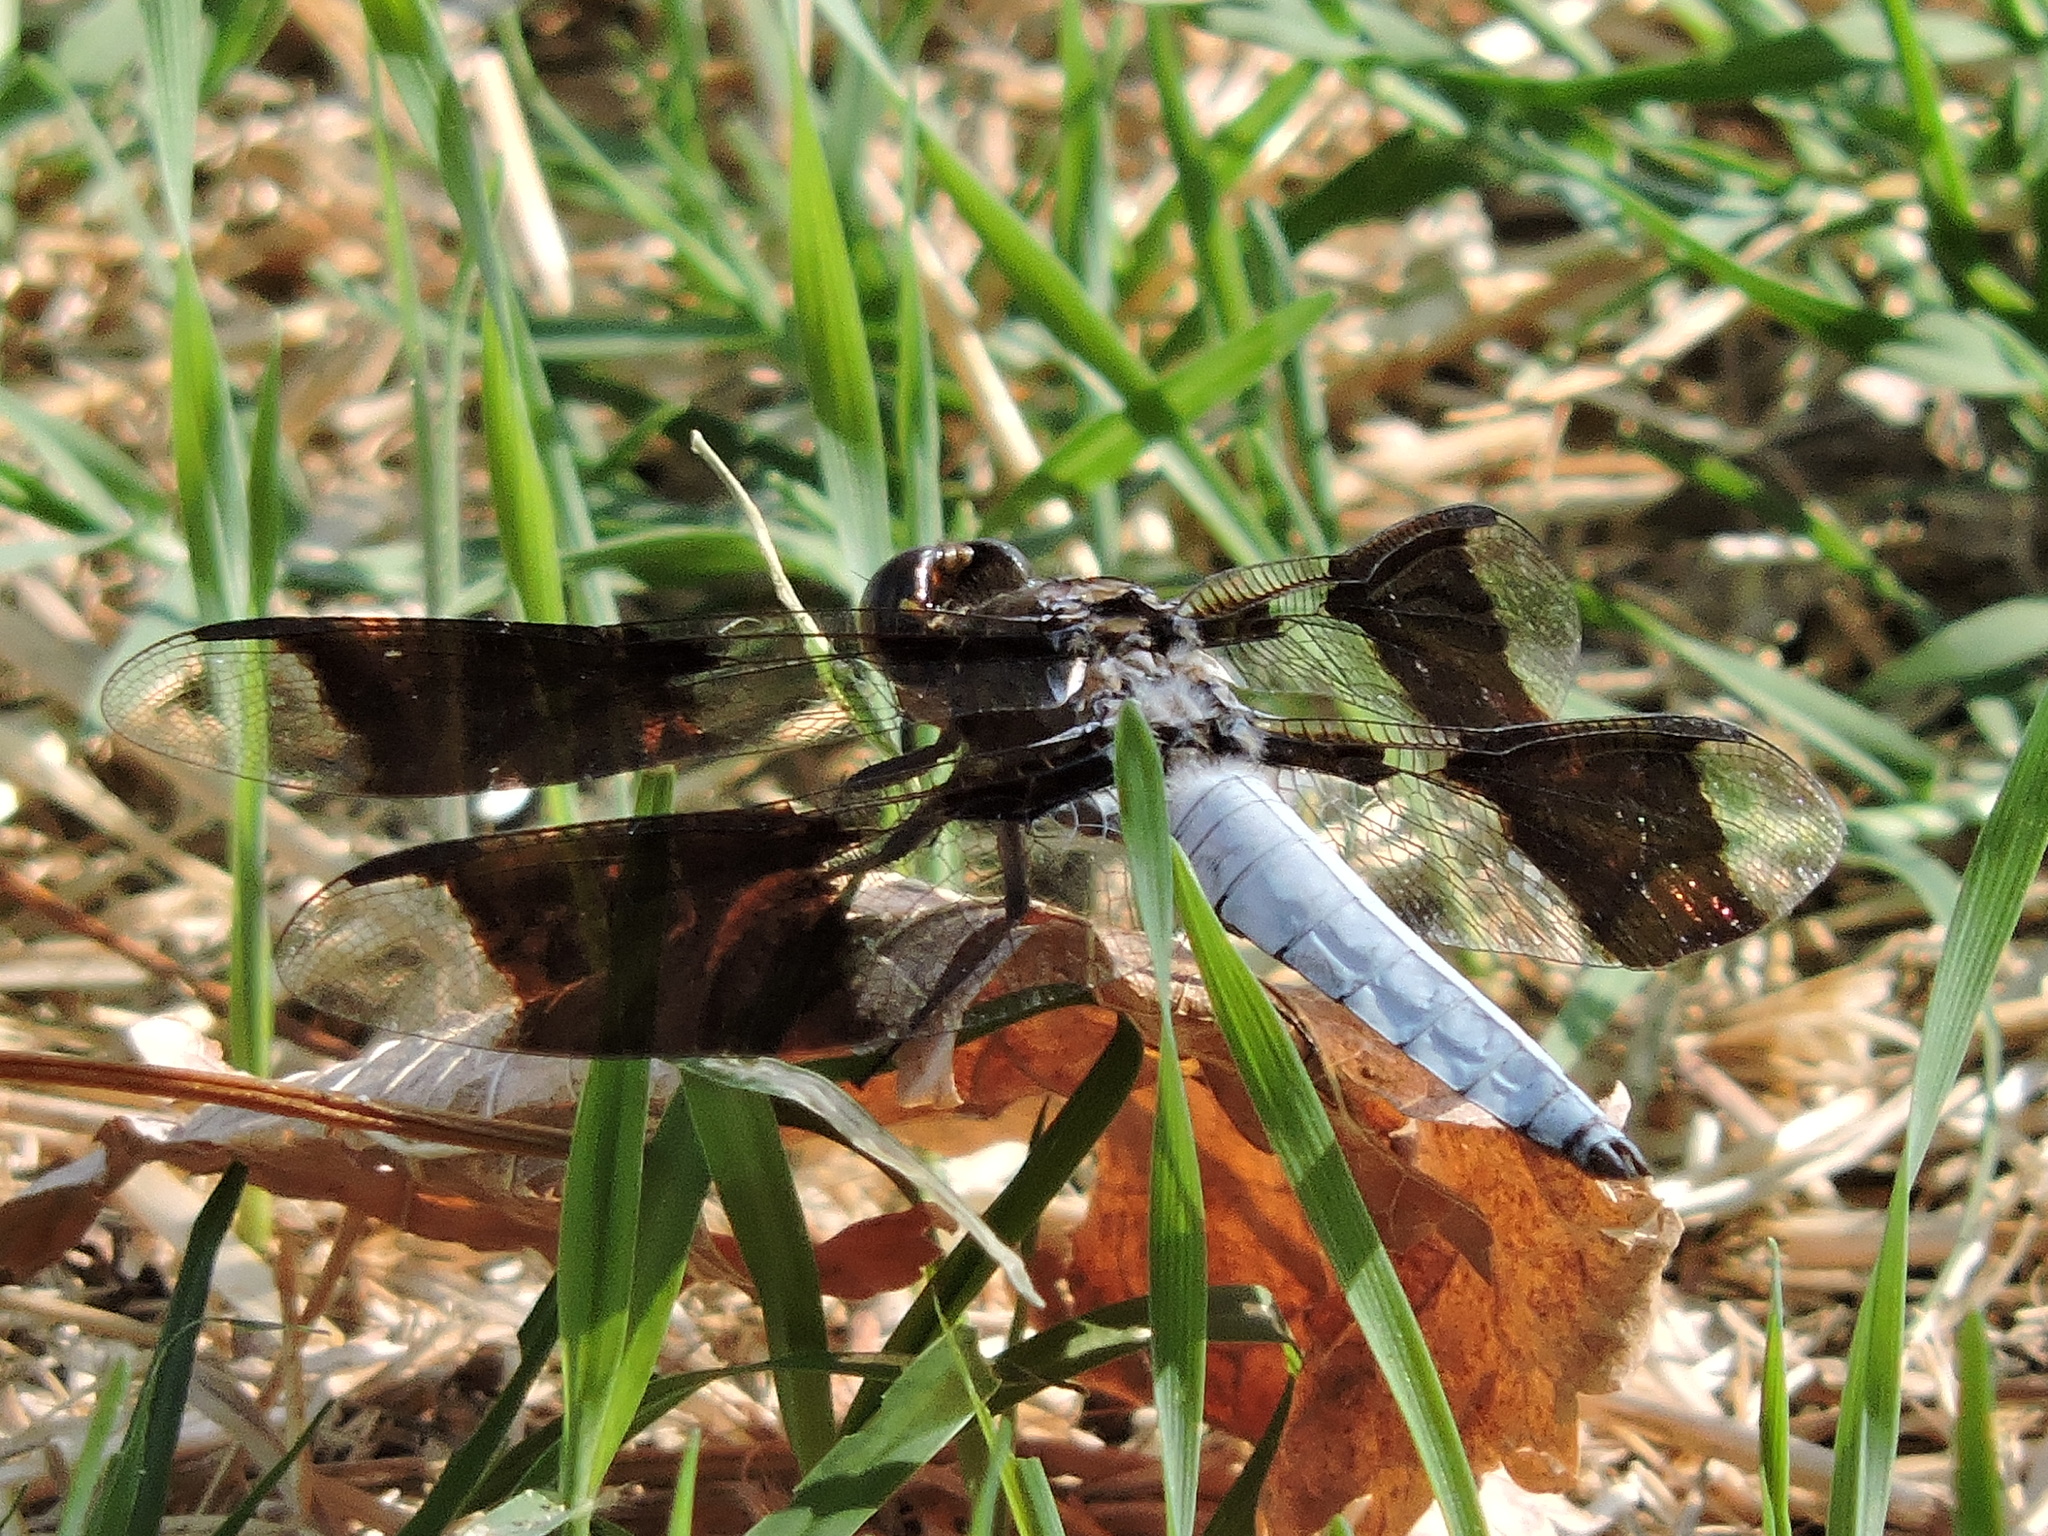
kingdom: Animalia
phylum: Arthropoda
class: Insecta
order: Odonata
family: Libellulidae
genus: Plathemis
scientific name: Plathemis lydia
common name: Common whitetail
